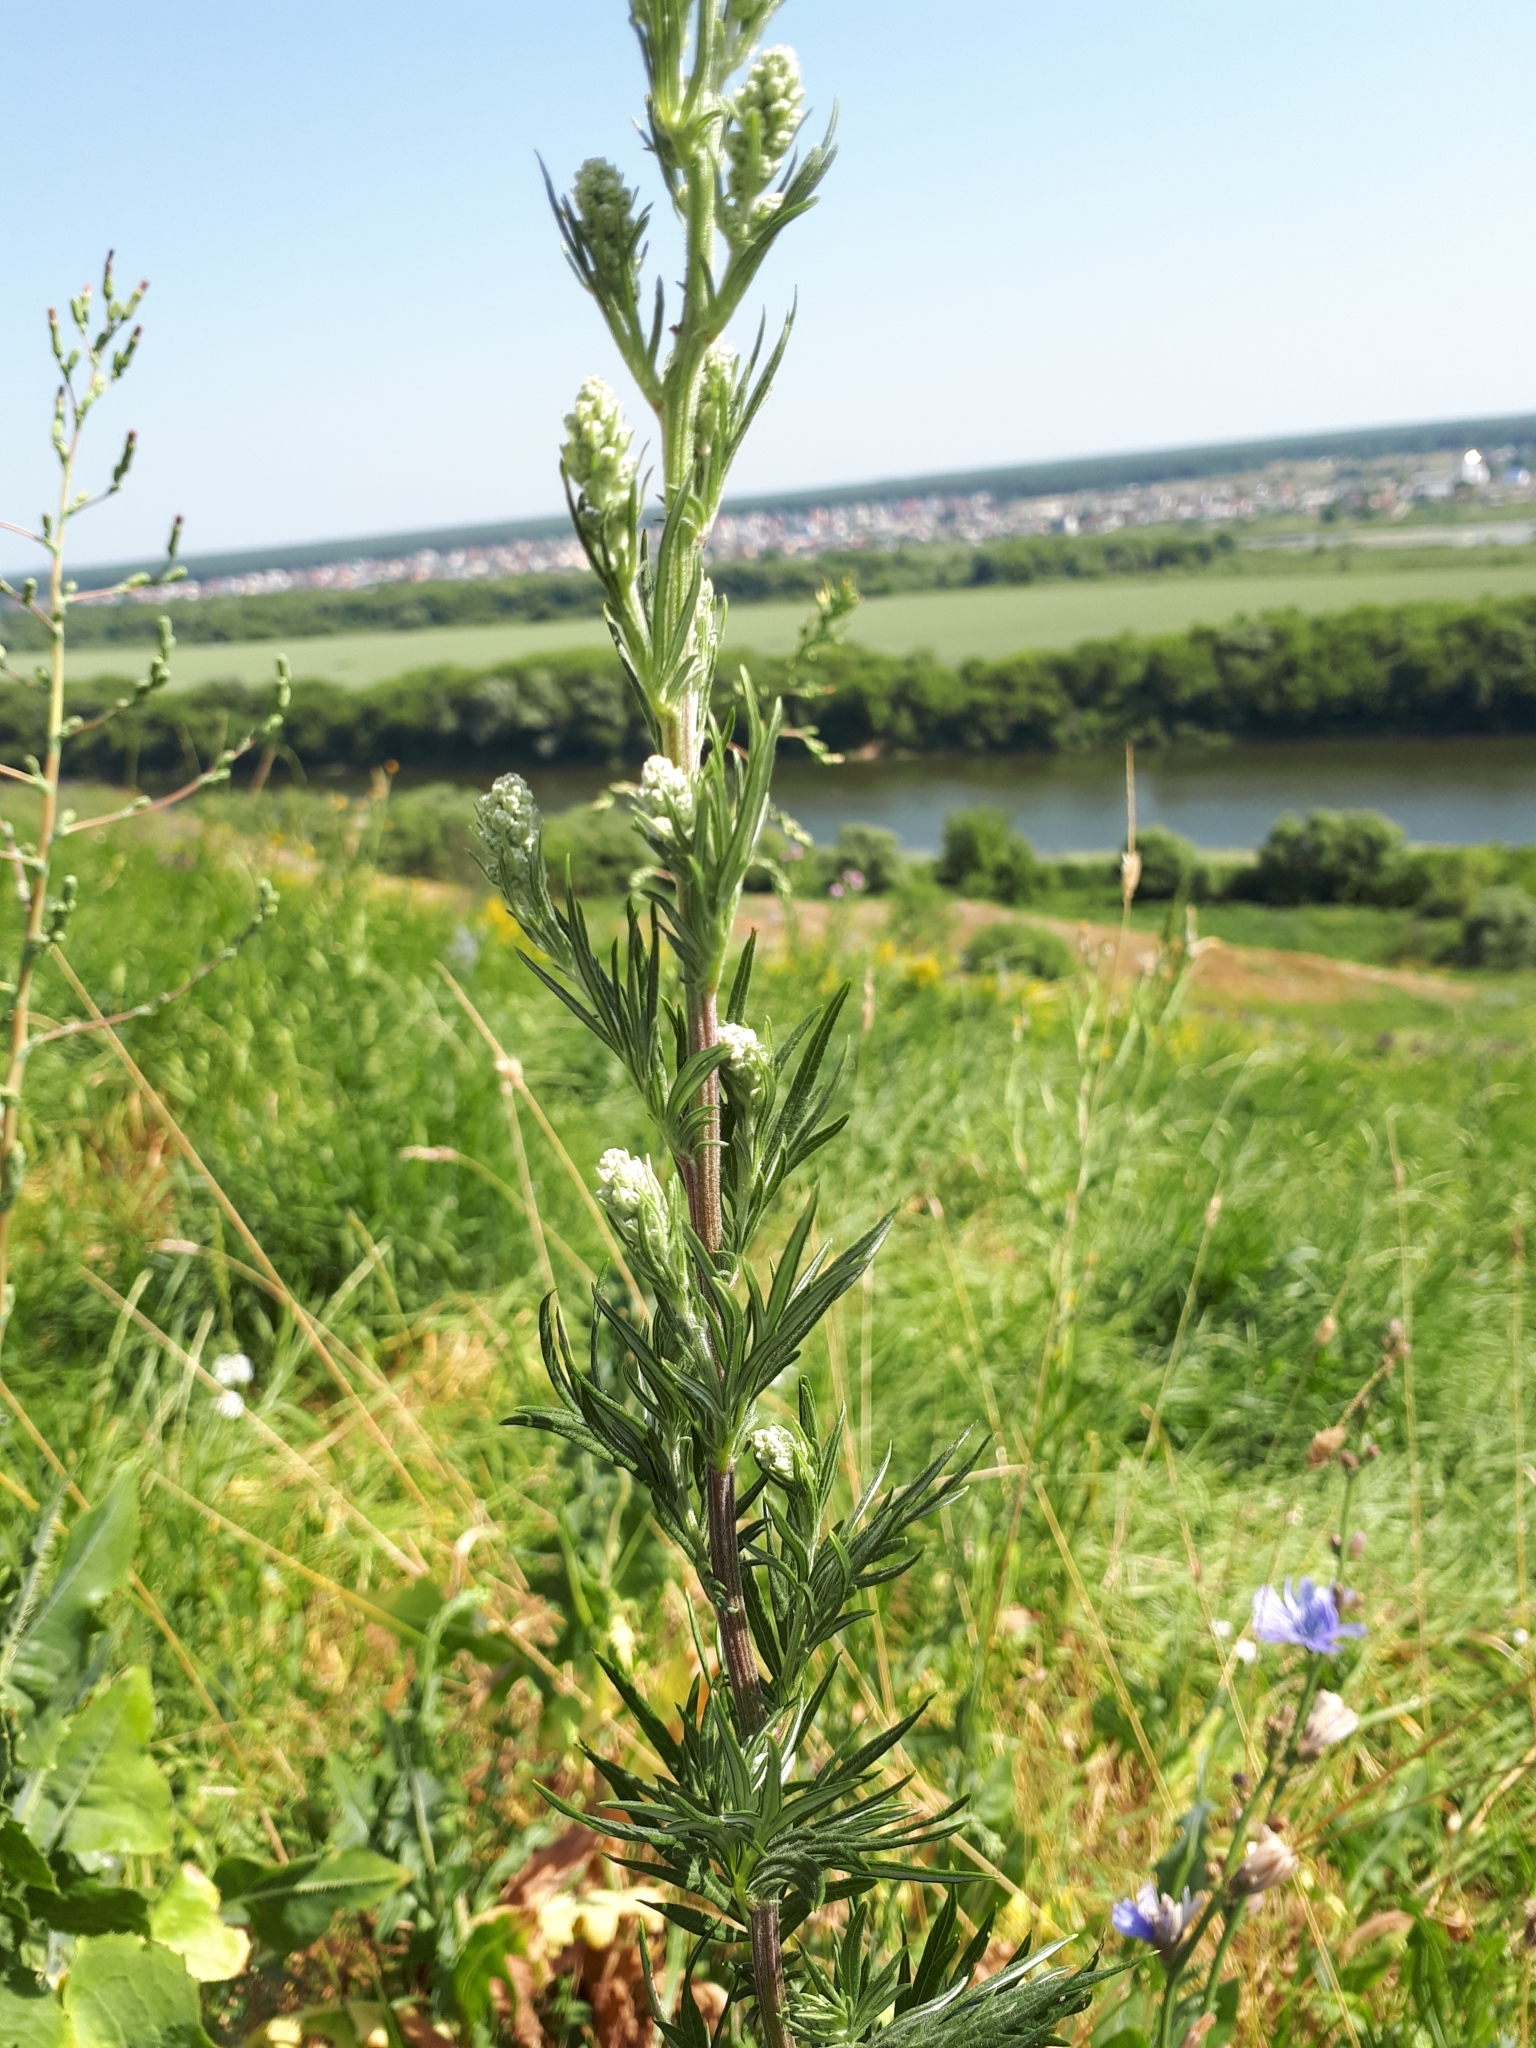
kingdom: Plantae
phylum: Tracheophyta
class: Magnoliopsida
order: Asterales
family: Asteraceae
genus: Artemisia
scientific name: Artemisia vulgaris
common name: Mugwort
